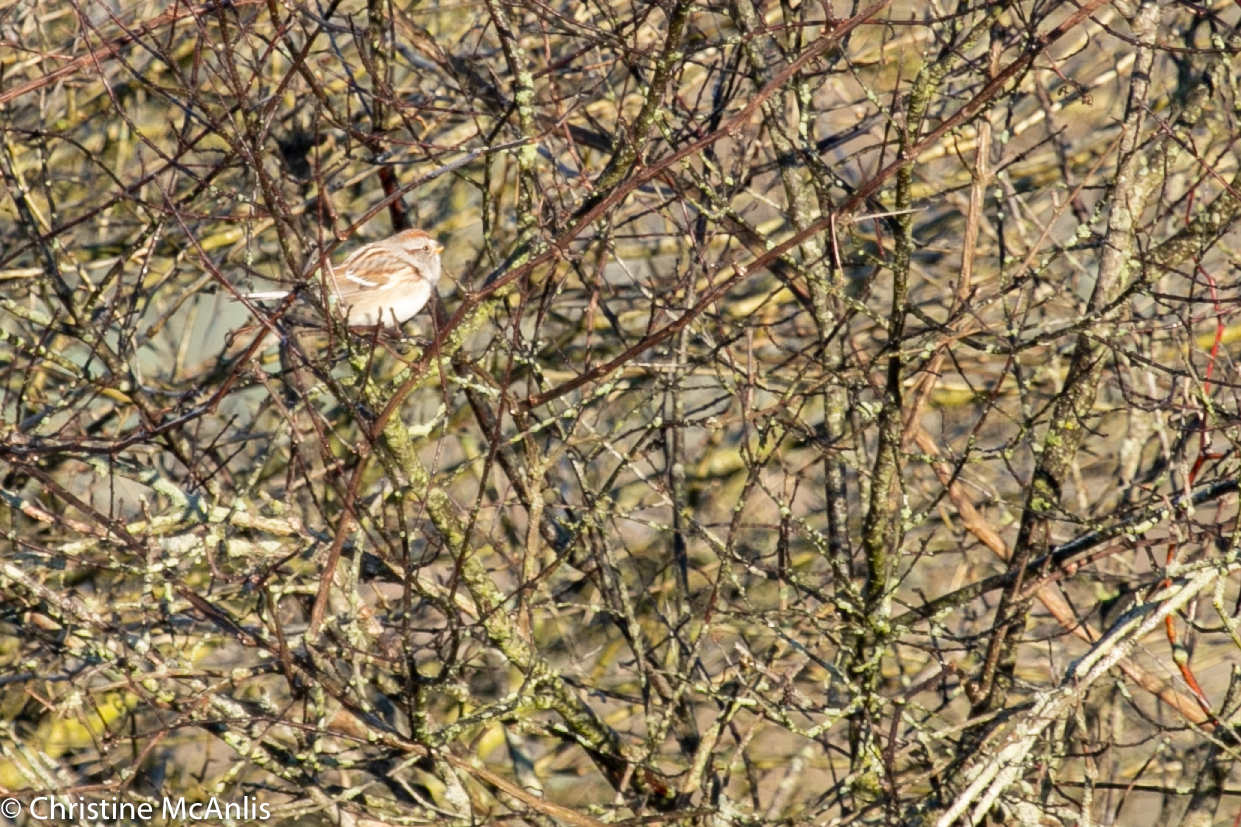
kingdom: Animalia
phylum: Chordata
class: Aves
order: Passeriformes
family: Passerellidae
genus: Spizelloides
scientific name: Spizelloides arborea
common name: American tree sparrow
